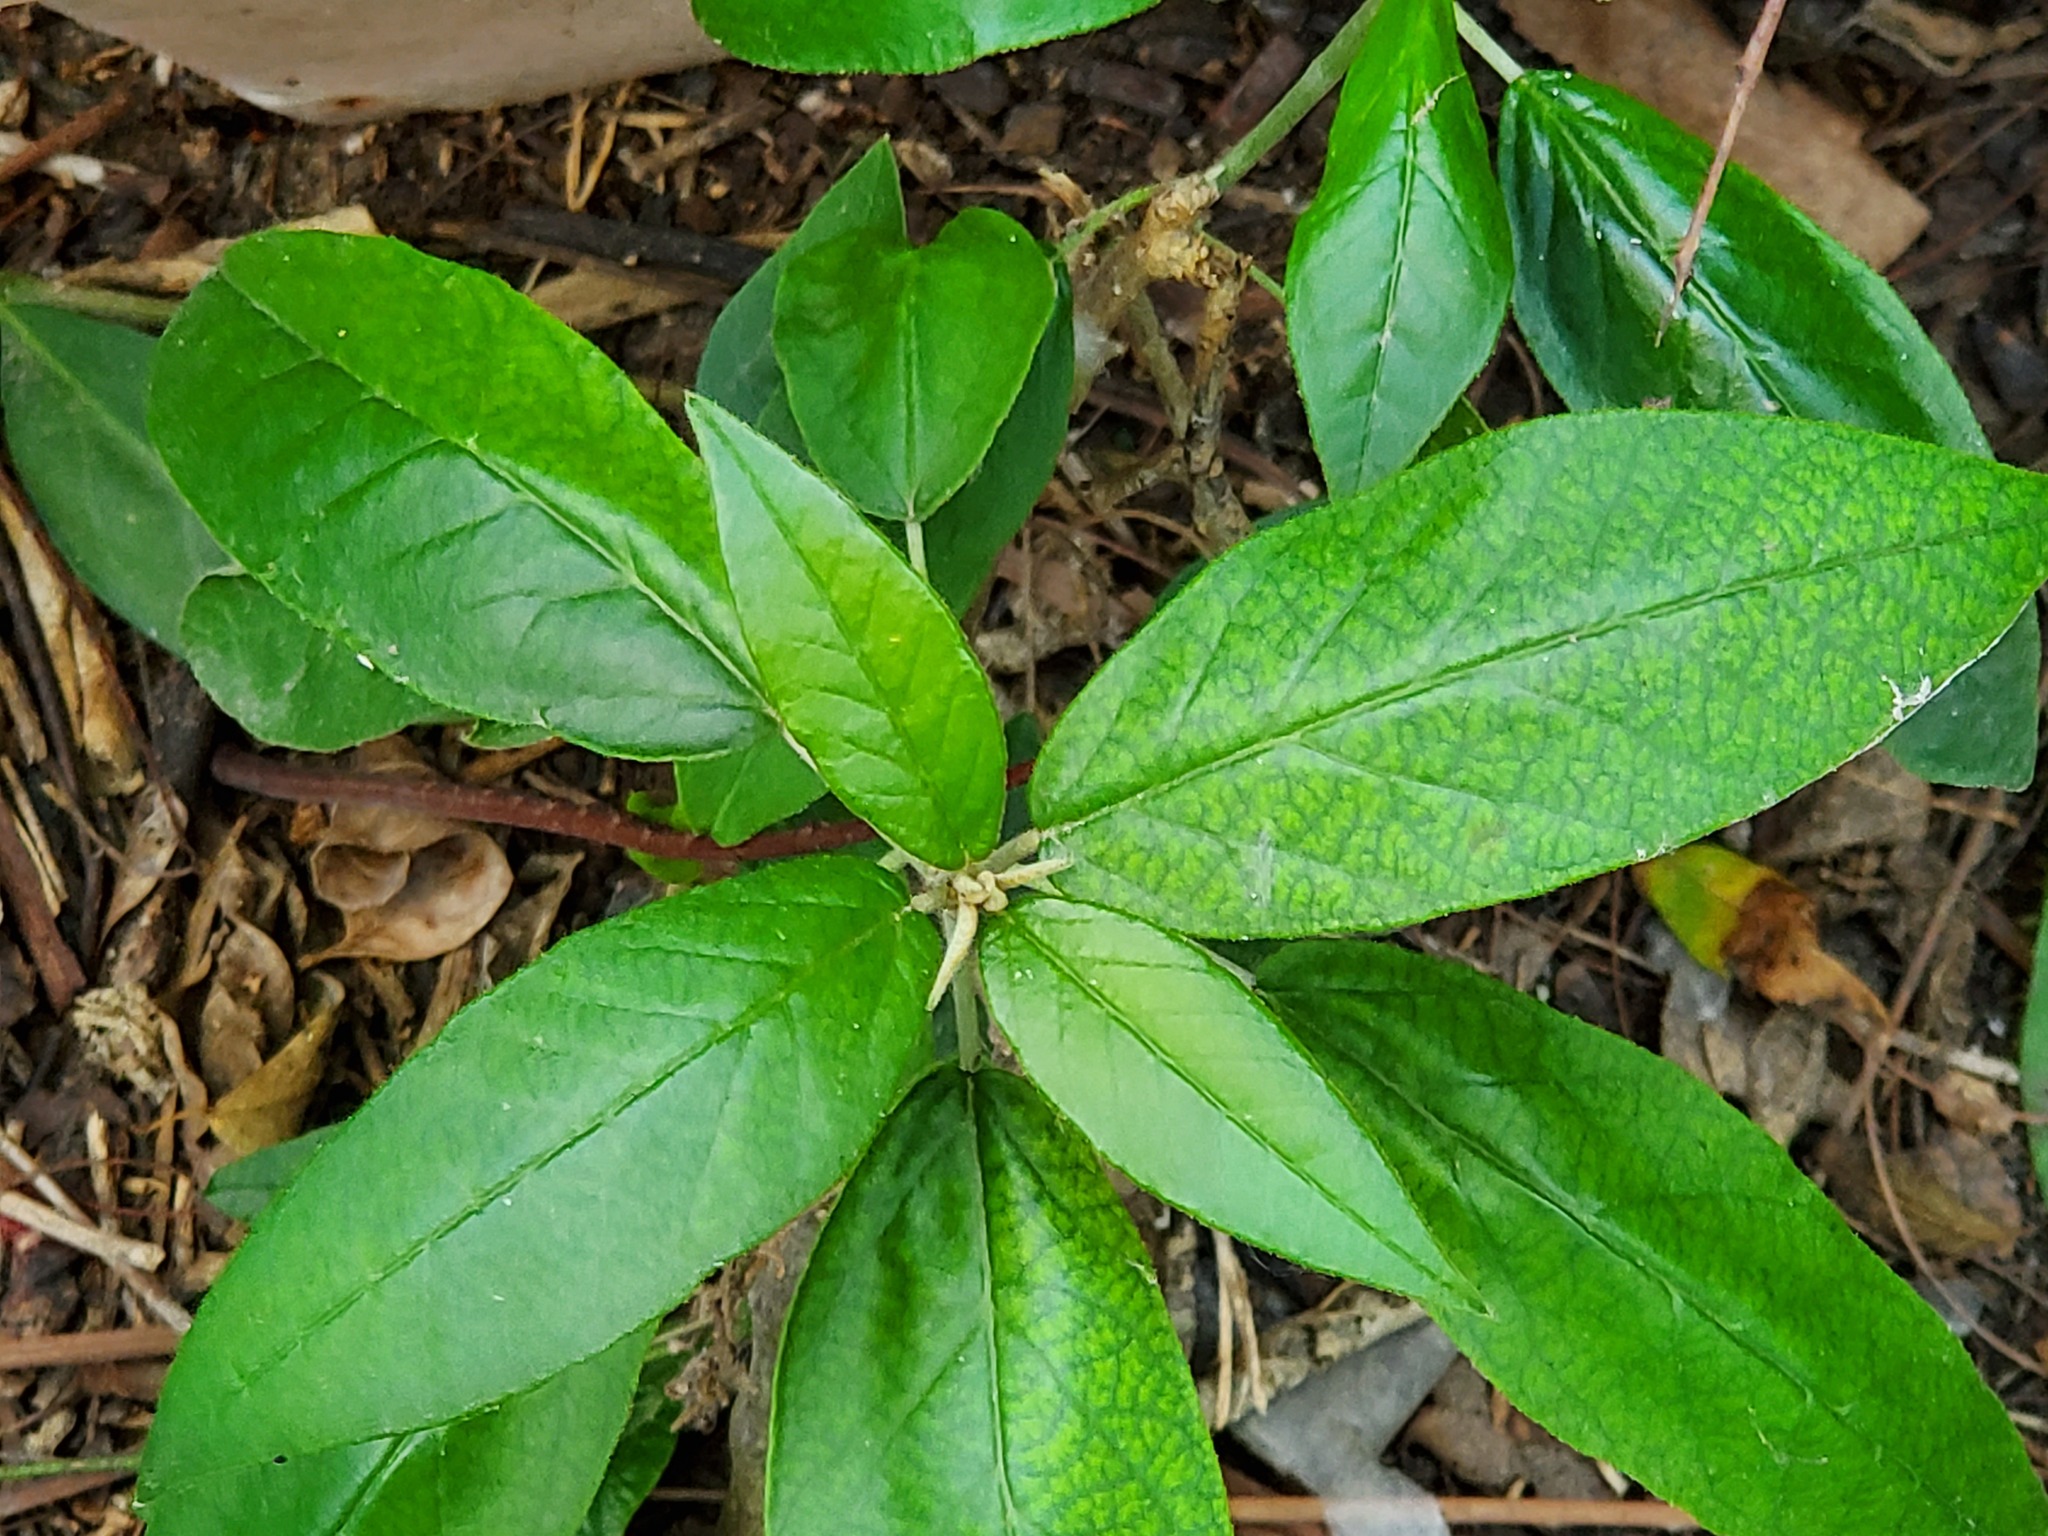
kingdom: Plantae
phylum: Tracheophyta
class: Magnoliopsida
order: Malpighiales
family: Euphorbiaceae
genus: Croton
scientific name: Croton cortesianus
